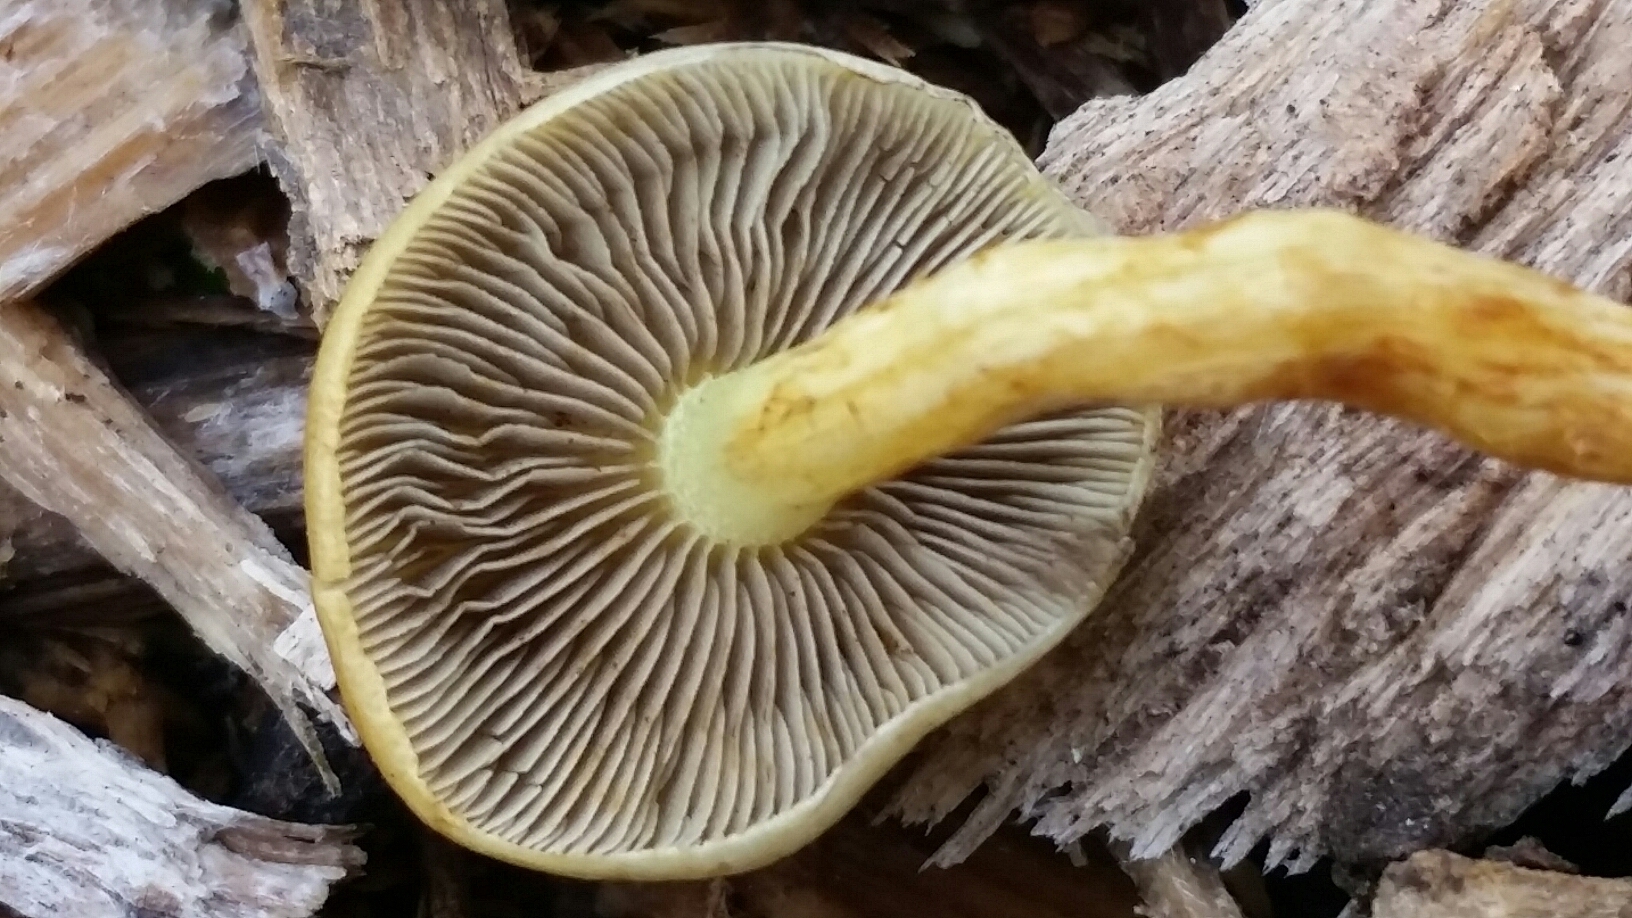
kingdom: Fungi
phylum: Basidiomycota
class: Agaricomycetes
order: Agaricales
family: Strophariaceae
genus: Hypholoma
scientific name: Hypholoma fasciculare
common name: Sulphur tuft
